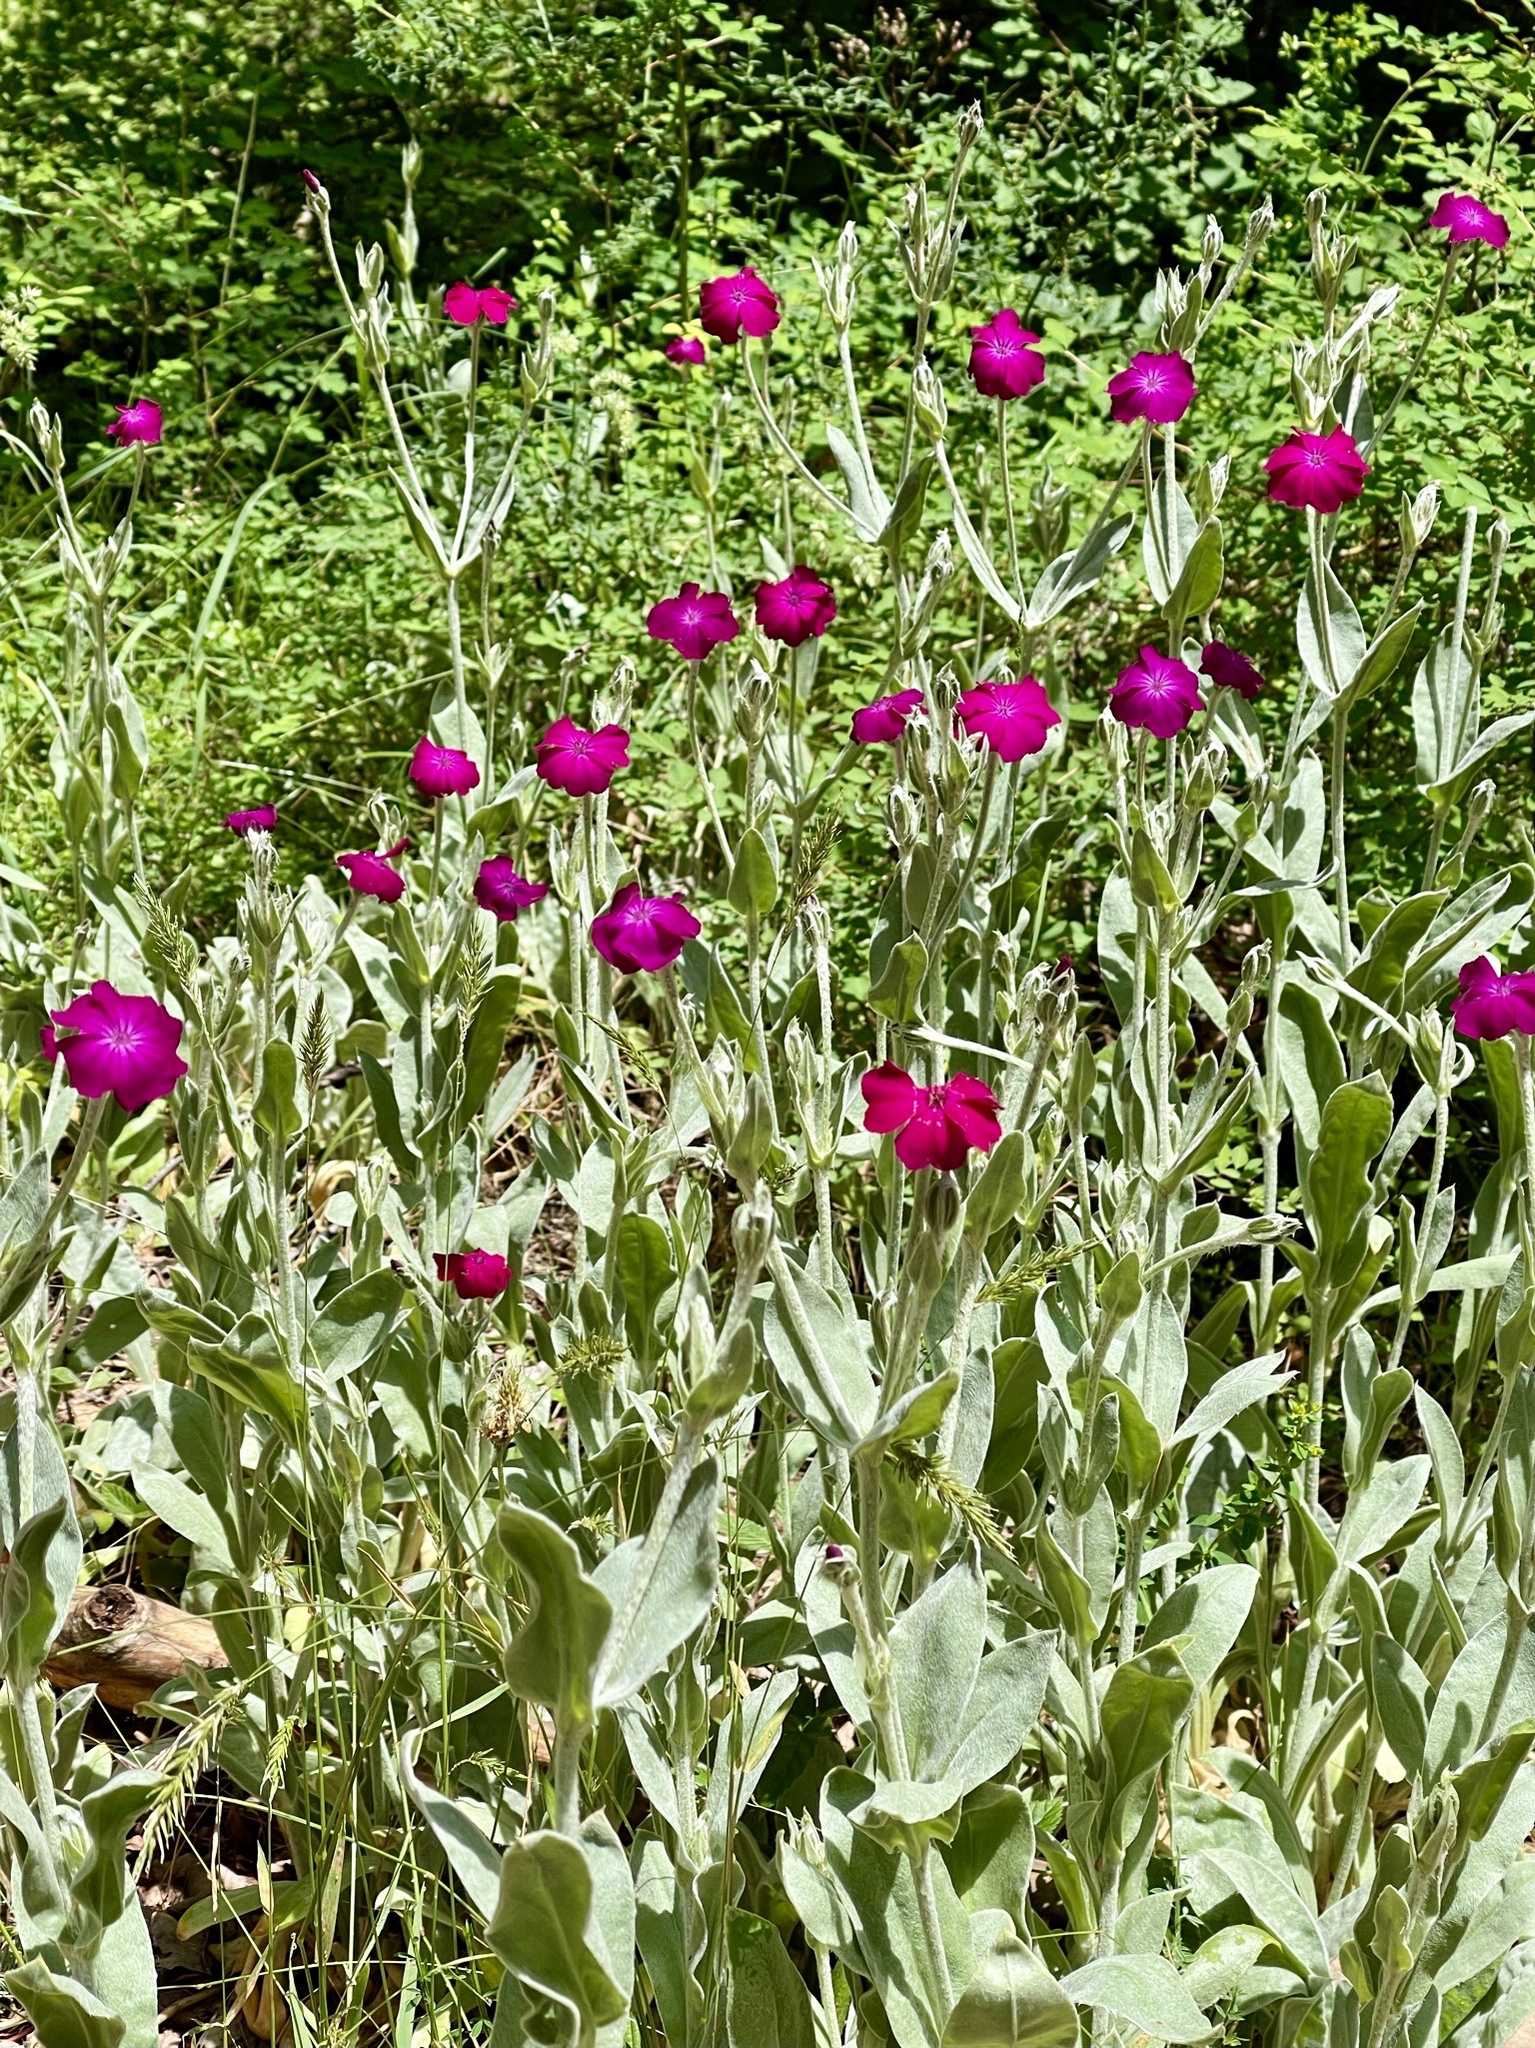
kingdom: Plantae
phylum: Tracheophyta
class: Magnoliopsida
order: Caryophyllales
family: Caryophyllaceae
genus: Silene
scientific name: Silene coronaria
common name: Rose campion
